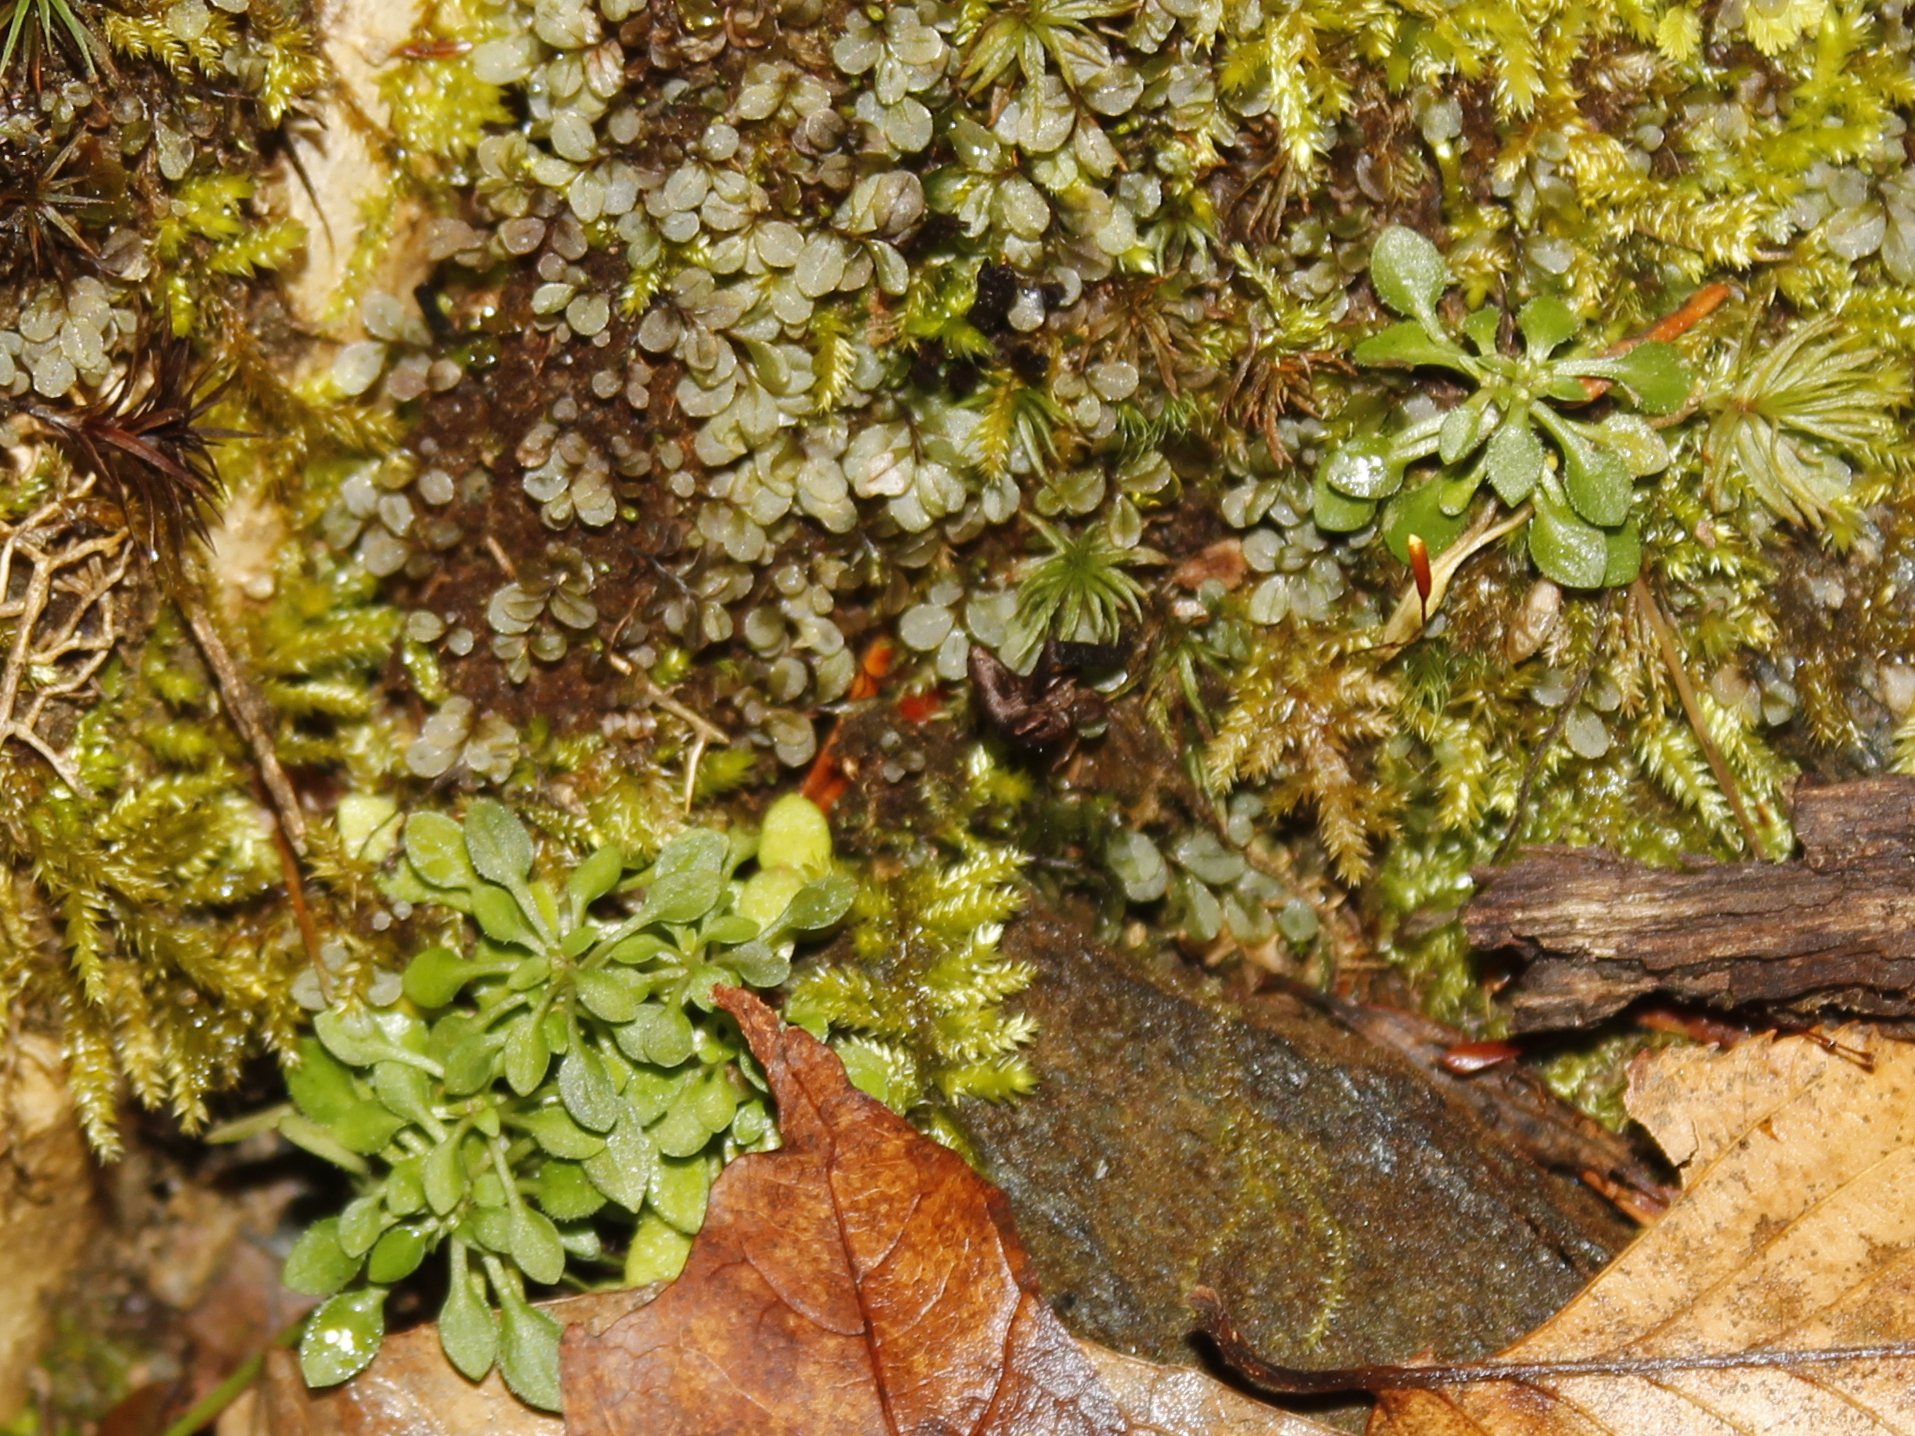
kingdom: Plantae
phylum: Tracheophyta
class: Magnoliopsida
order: Gentianales
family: Rubiaceae
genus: Houstonia
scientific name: Houstonia caerulea
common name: Bluets
